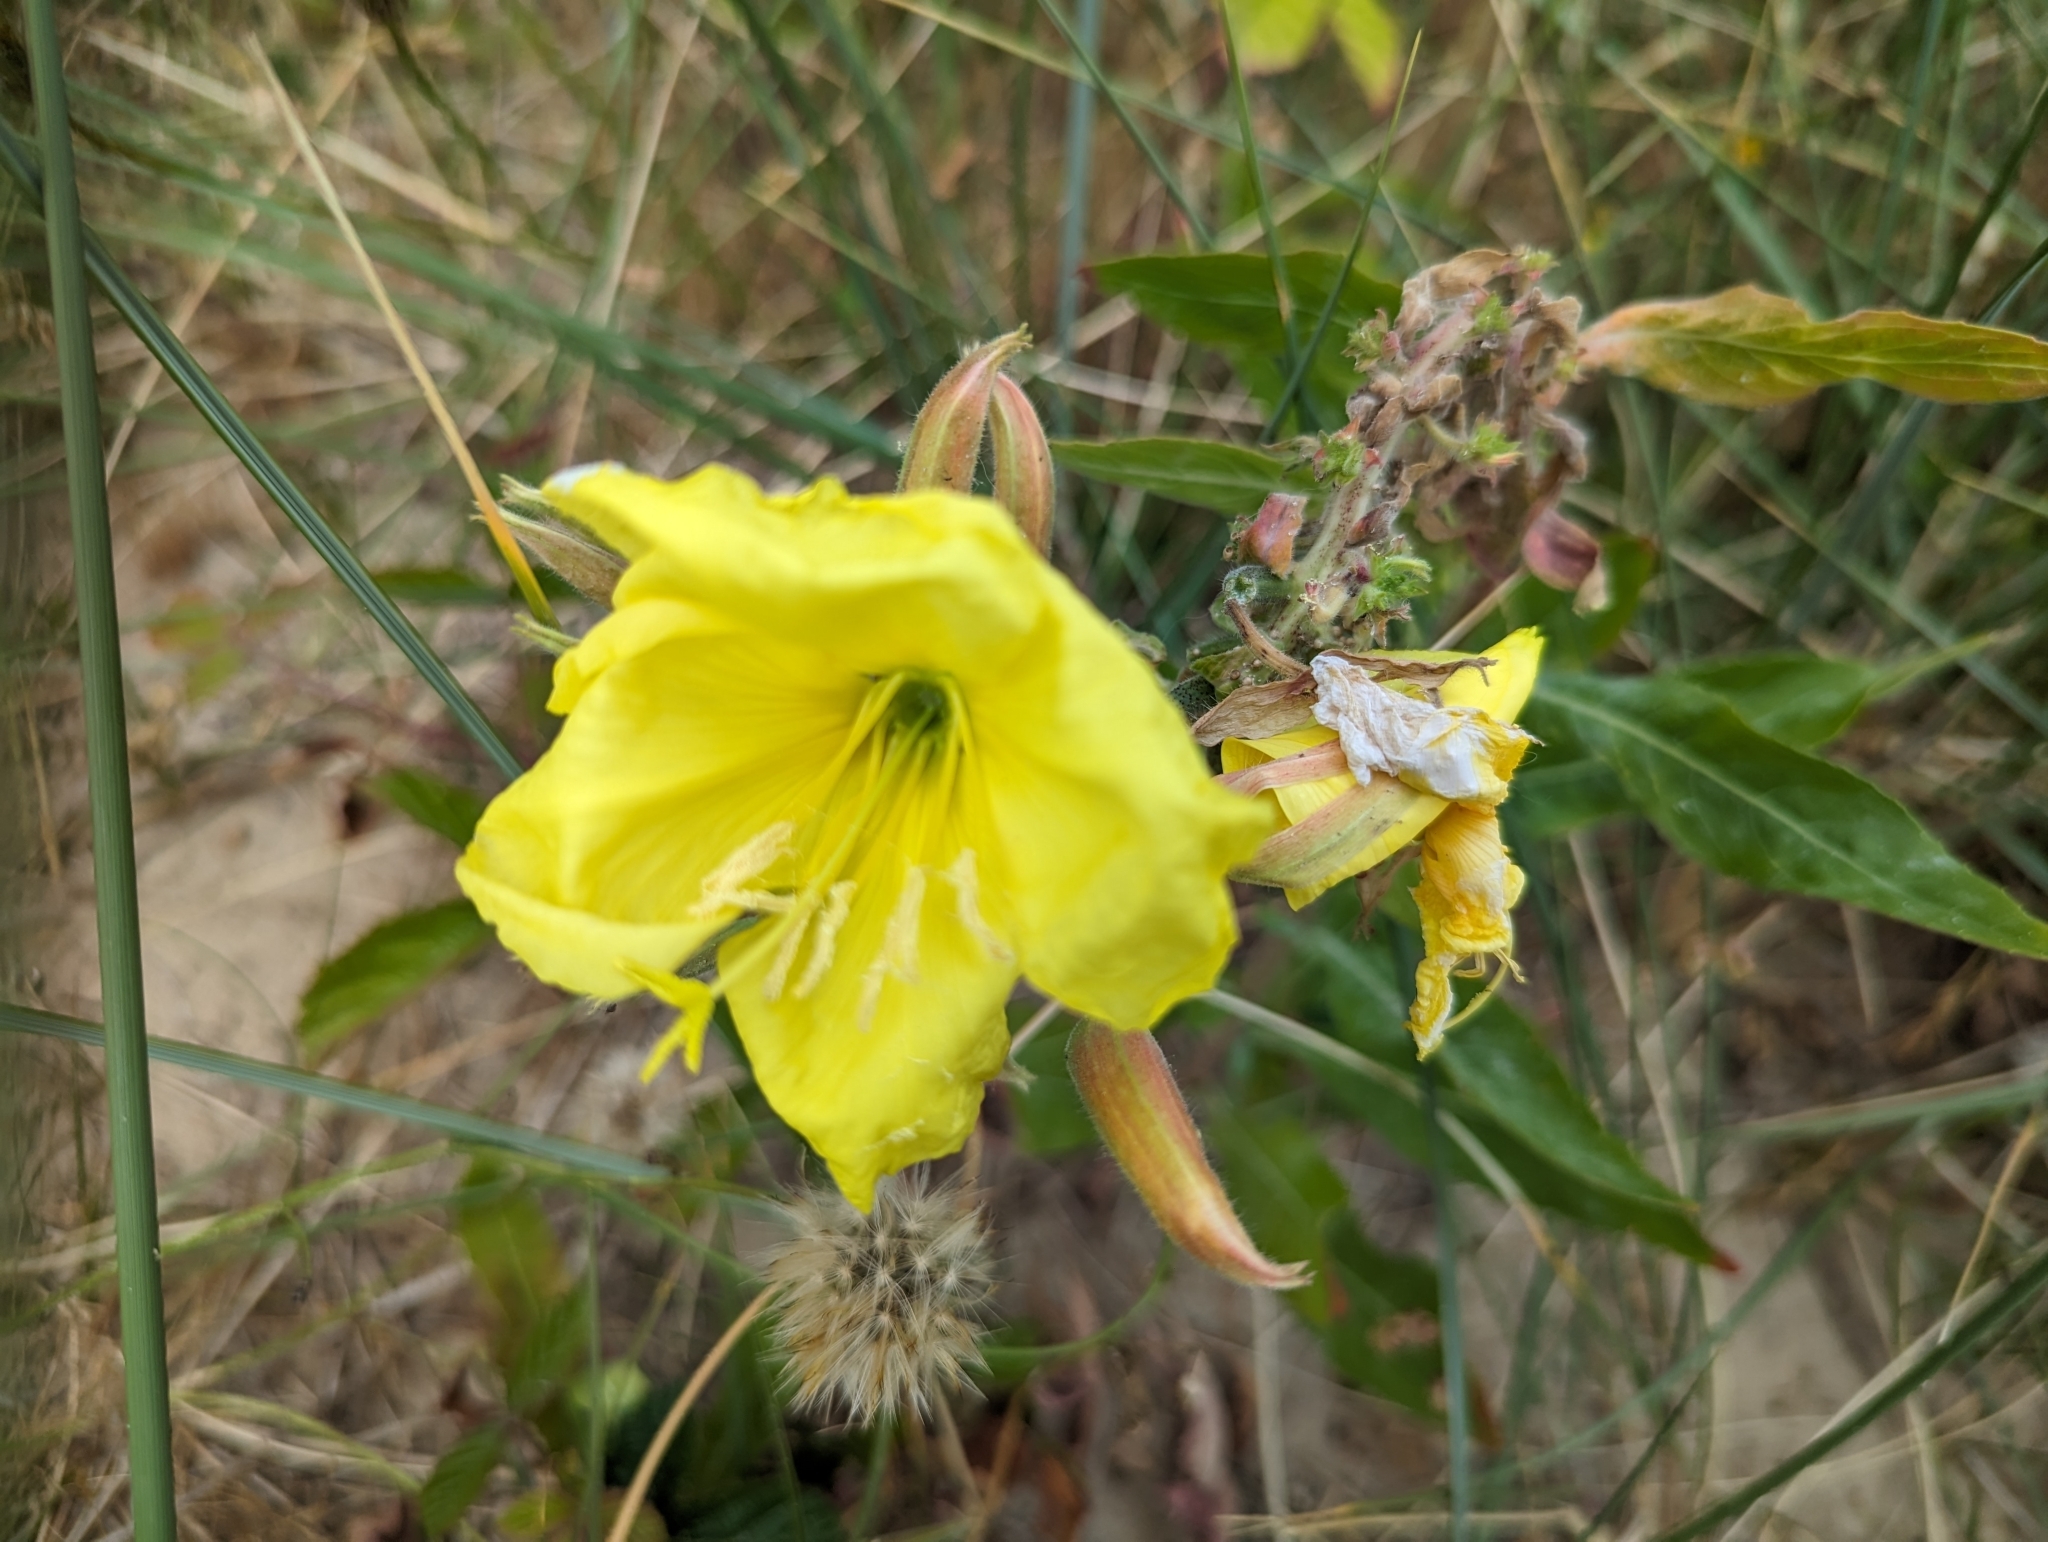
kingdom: Plantae
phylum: Tracheophyta
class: Magnoliopsida
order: Myrtales
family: Onagraceae
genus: Oenothera
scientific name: Oenothera glazioviana
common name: Large-flowered evening-primrose
